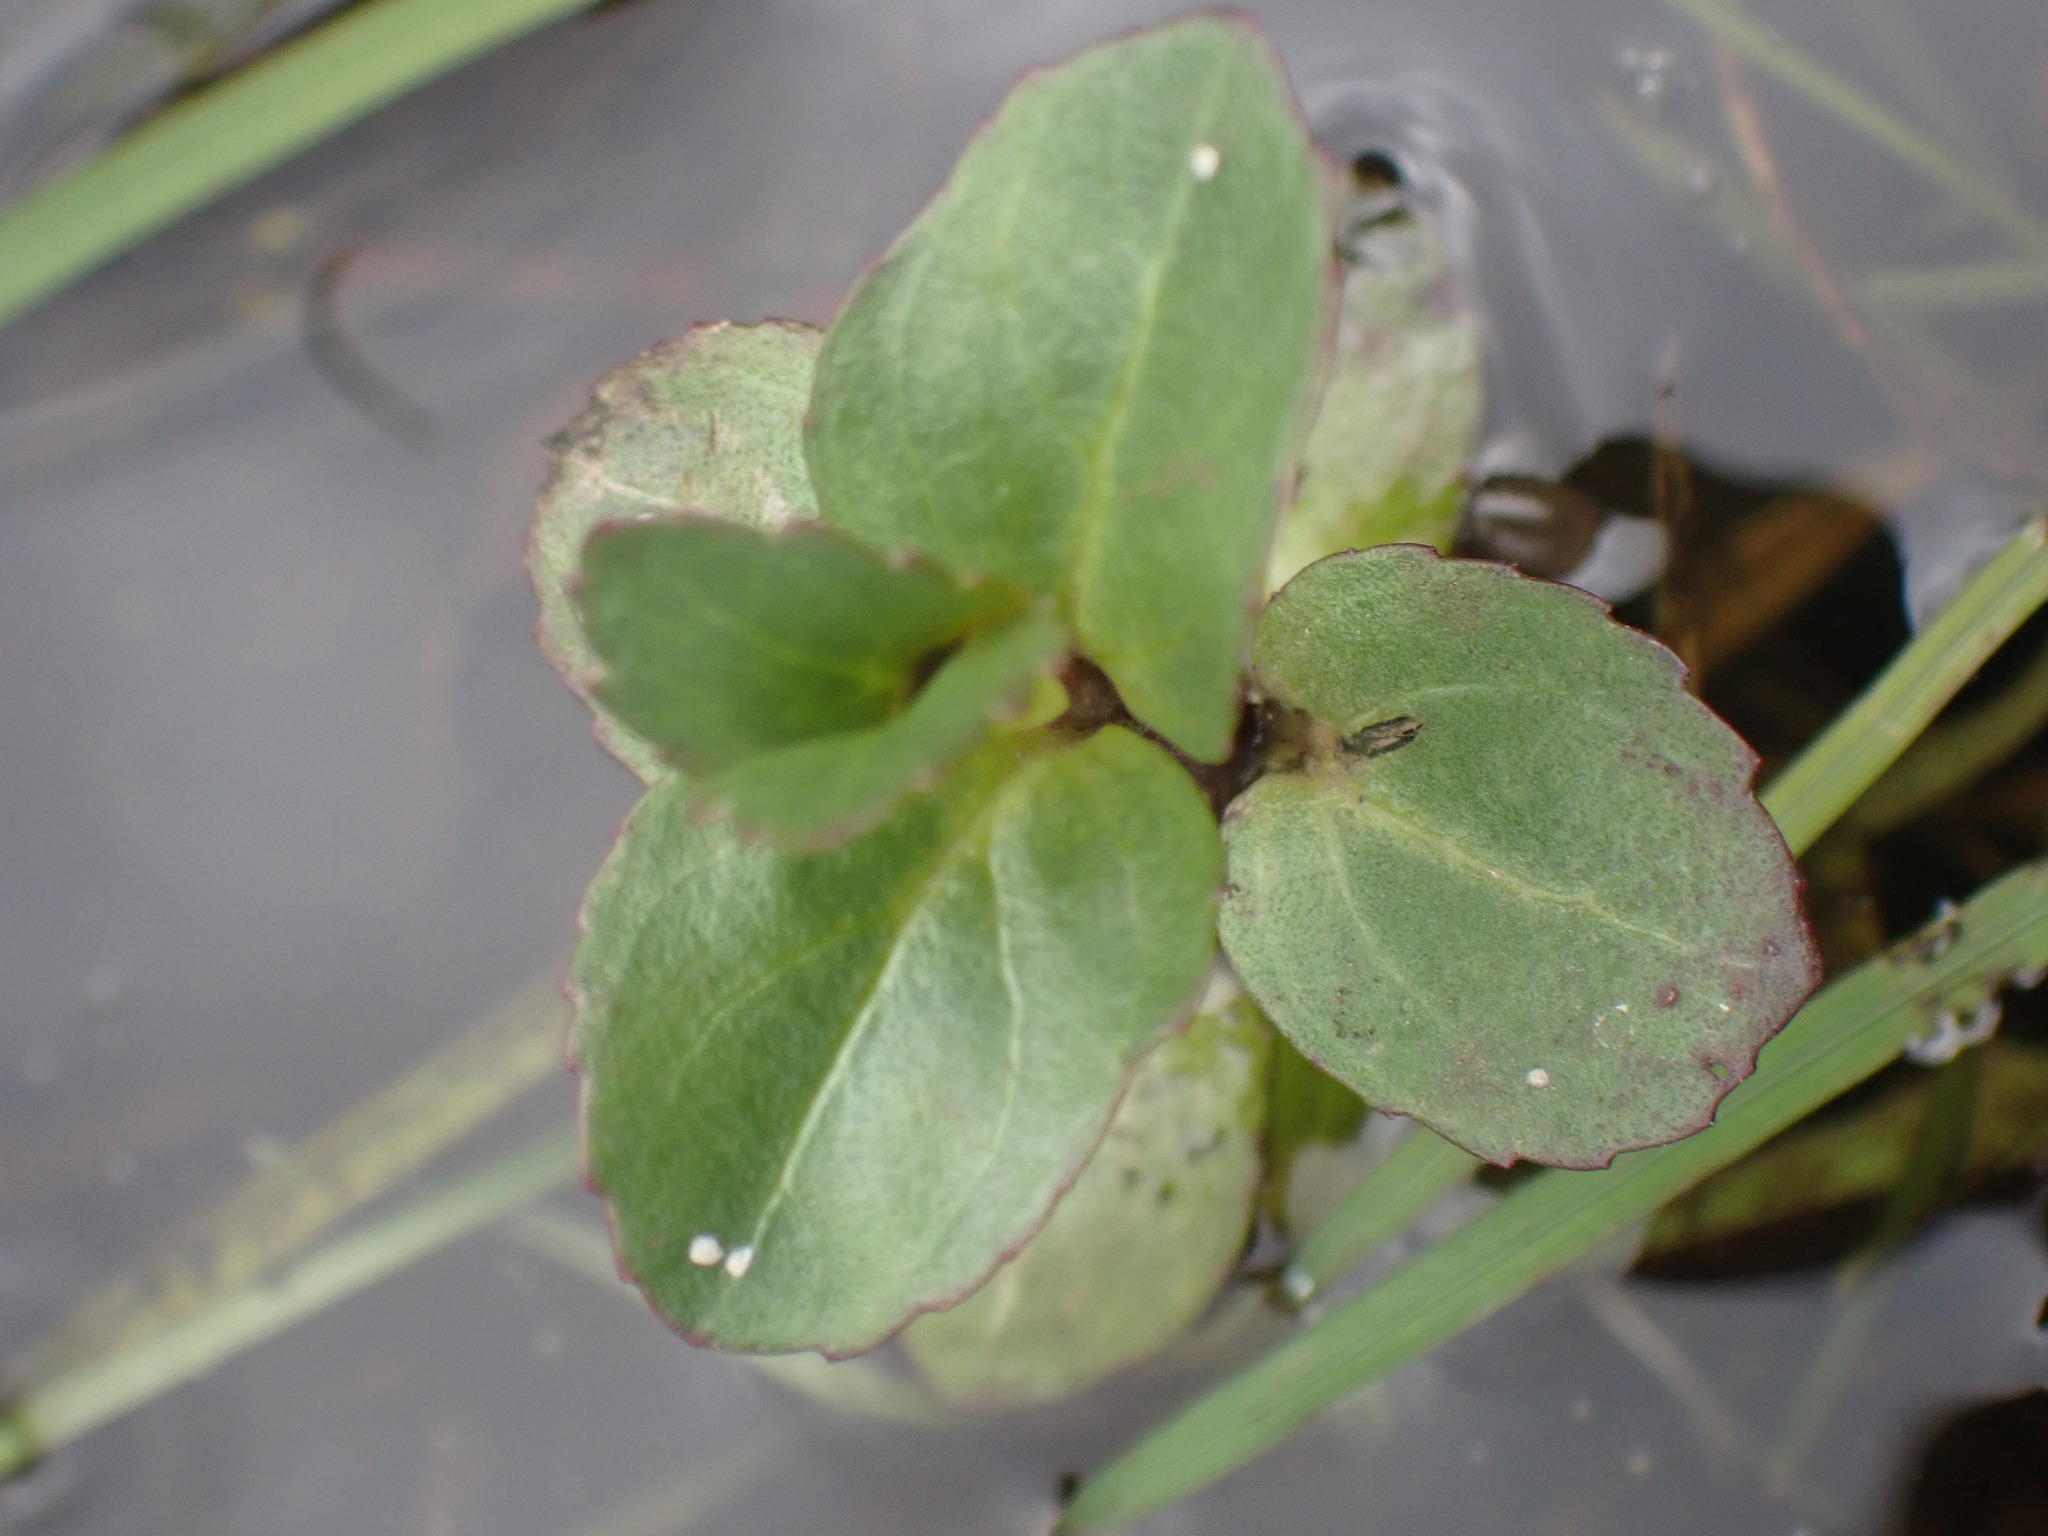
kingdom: Plantae
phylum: Tracheophyta
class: Magnoliopsida
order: Lamiales
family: Plantaginaceae
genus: Veronica
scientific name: Veronica beccabunga
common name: Brooklime
